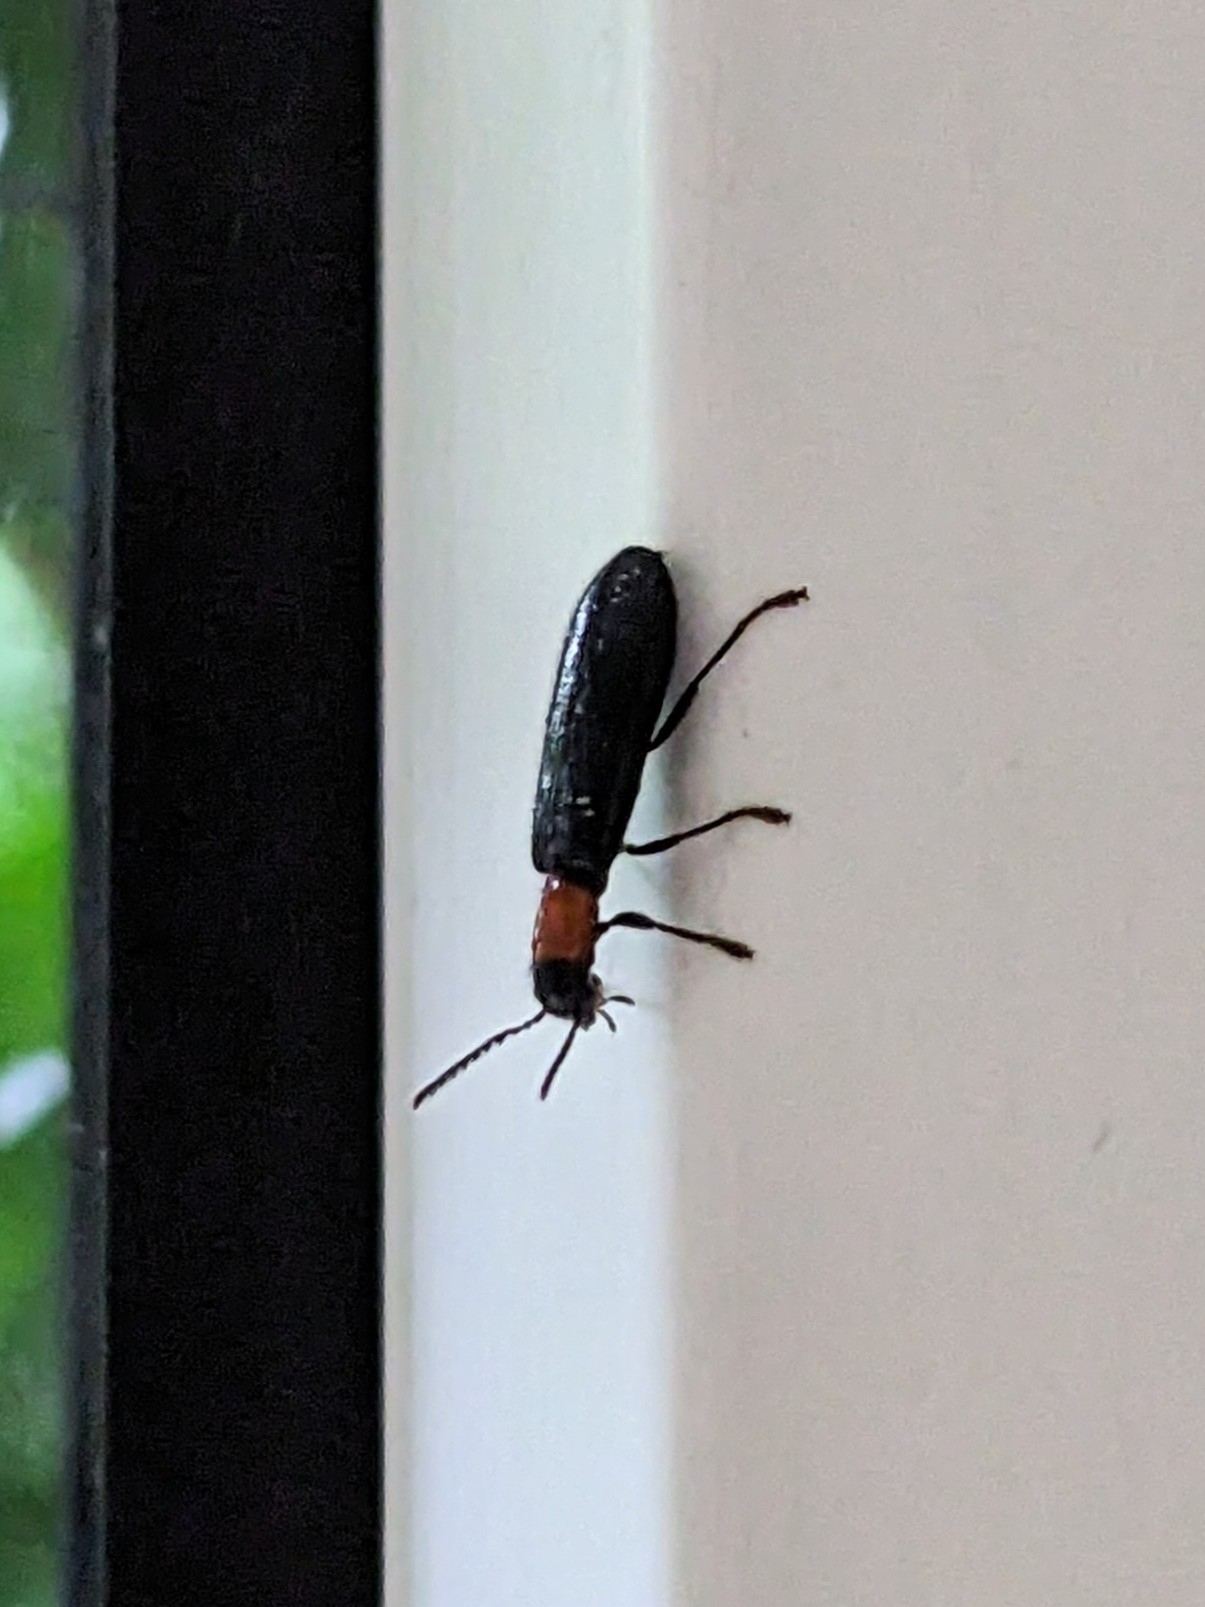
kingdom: Animalia
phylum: Arthropoda
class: Insecta
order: Coleoptera
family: Cleridae
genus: Tillus
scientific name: Tillus elongatus
